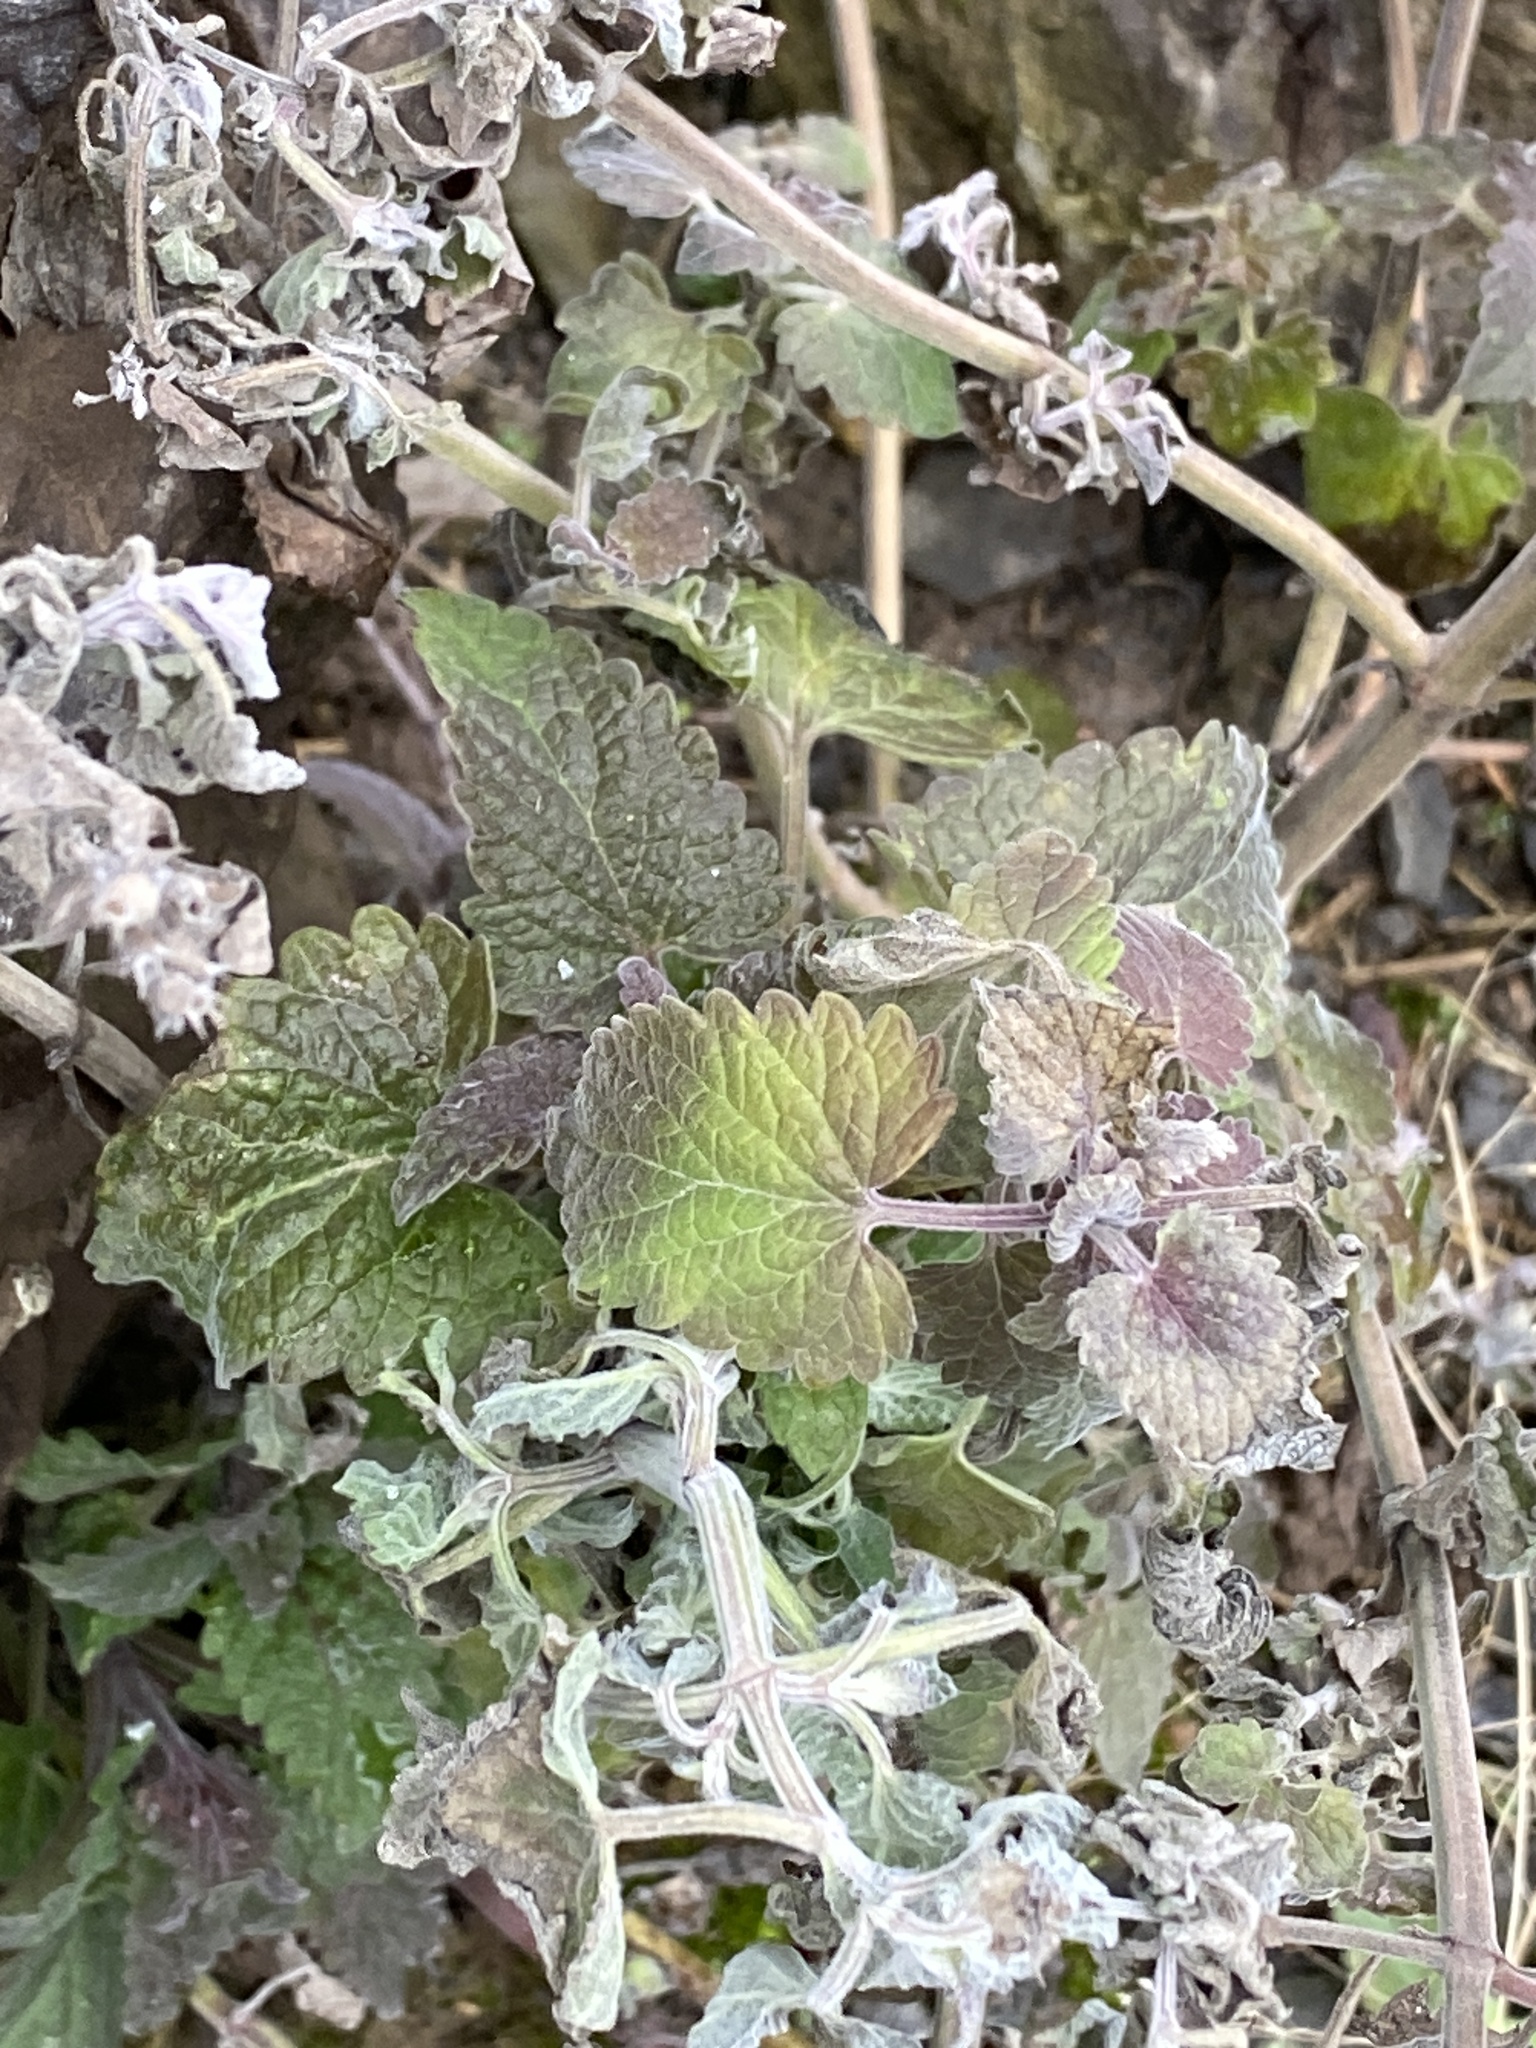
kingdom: Plantae
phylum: Tracheophyta
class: Magnoliopsida
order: Lamiales
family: Lamiaceae
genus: Nepeta
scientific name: Nepeta cataria
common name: Catnip
